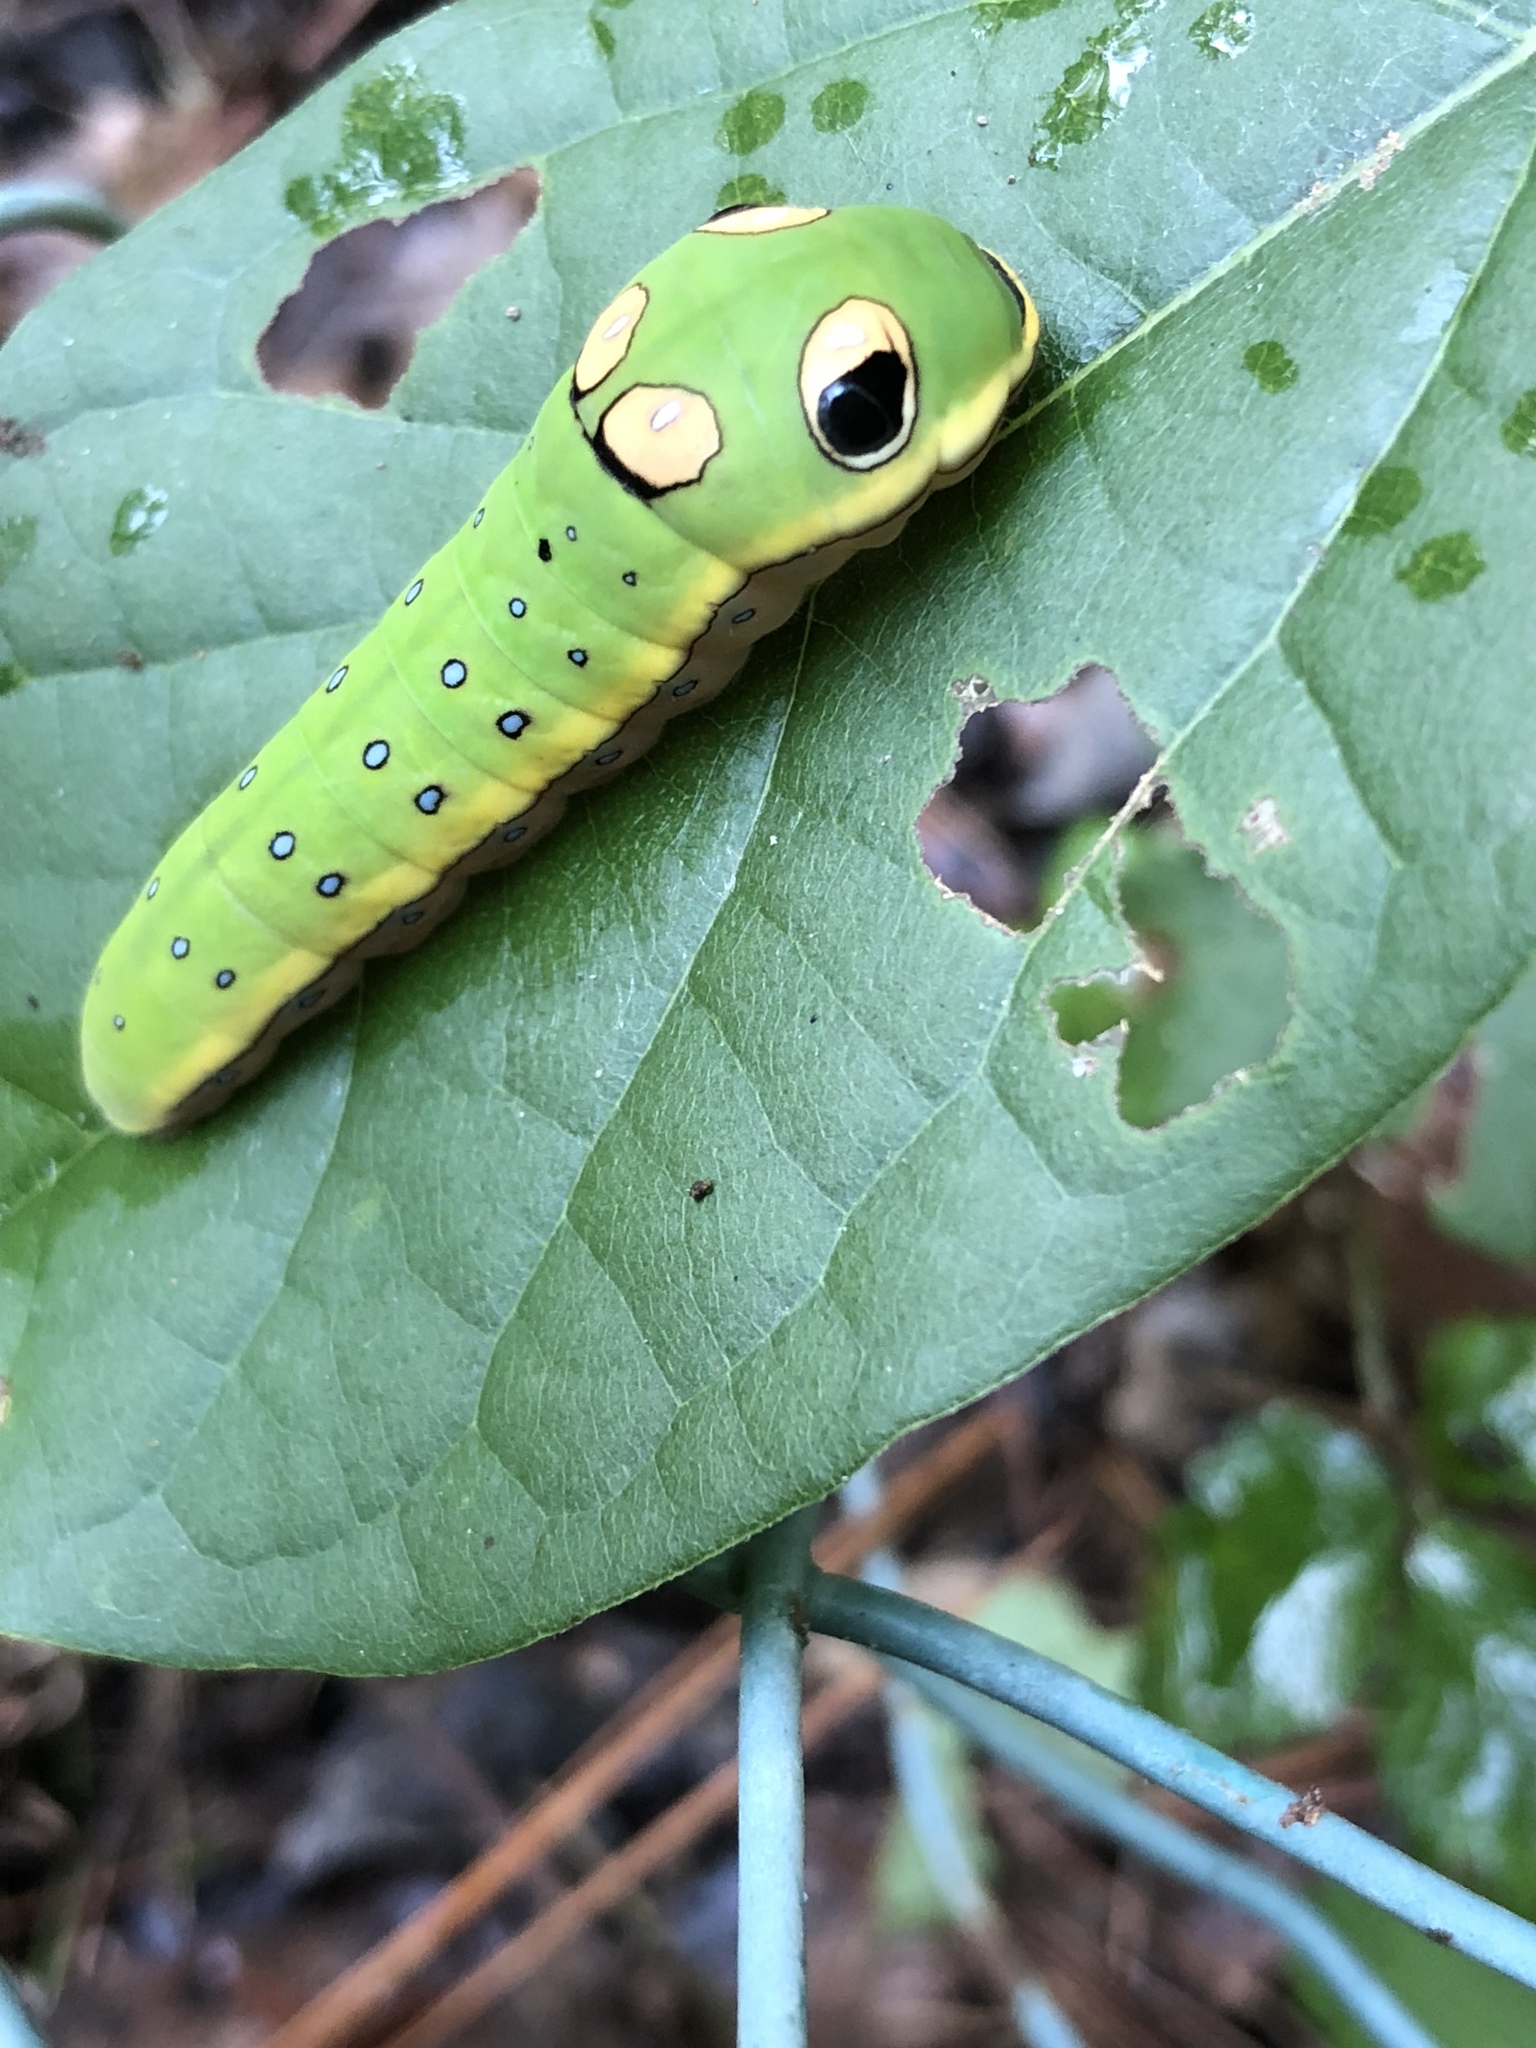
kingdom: Animalia
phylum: Arthropoda
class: Insecta
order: Lepidoptera
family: Papilionidae
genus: Papilio
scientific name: Papilio troilus
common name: Spicebush swallowtail
